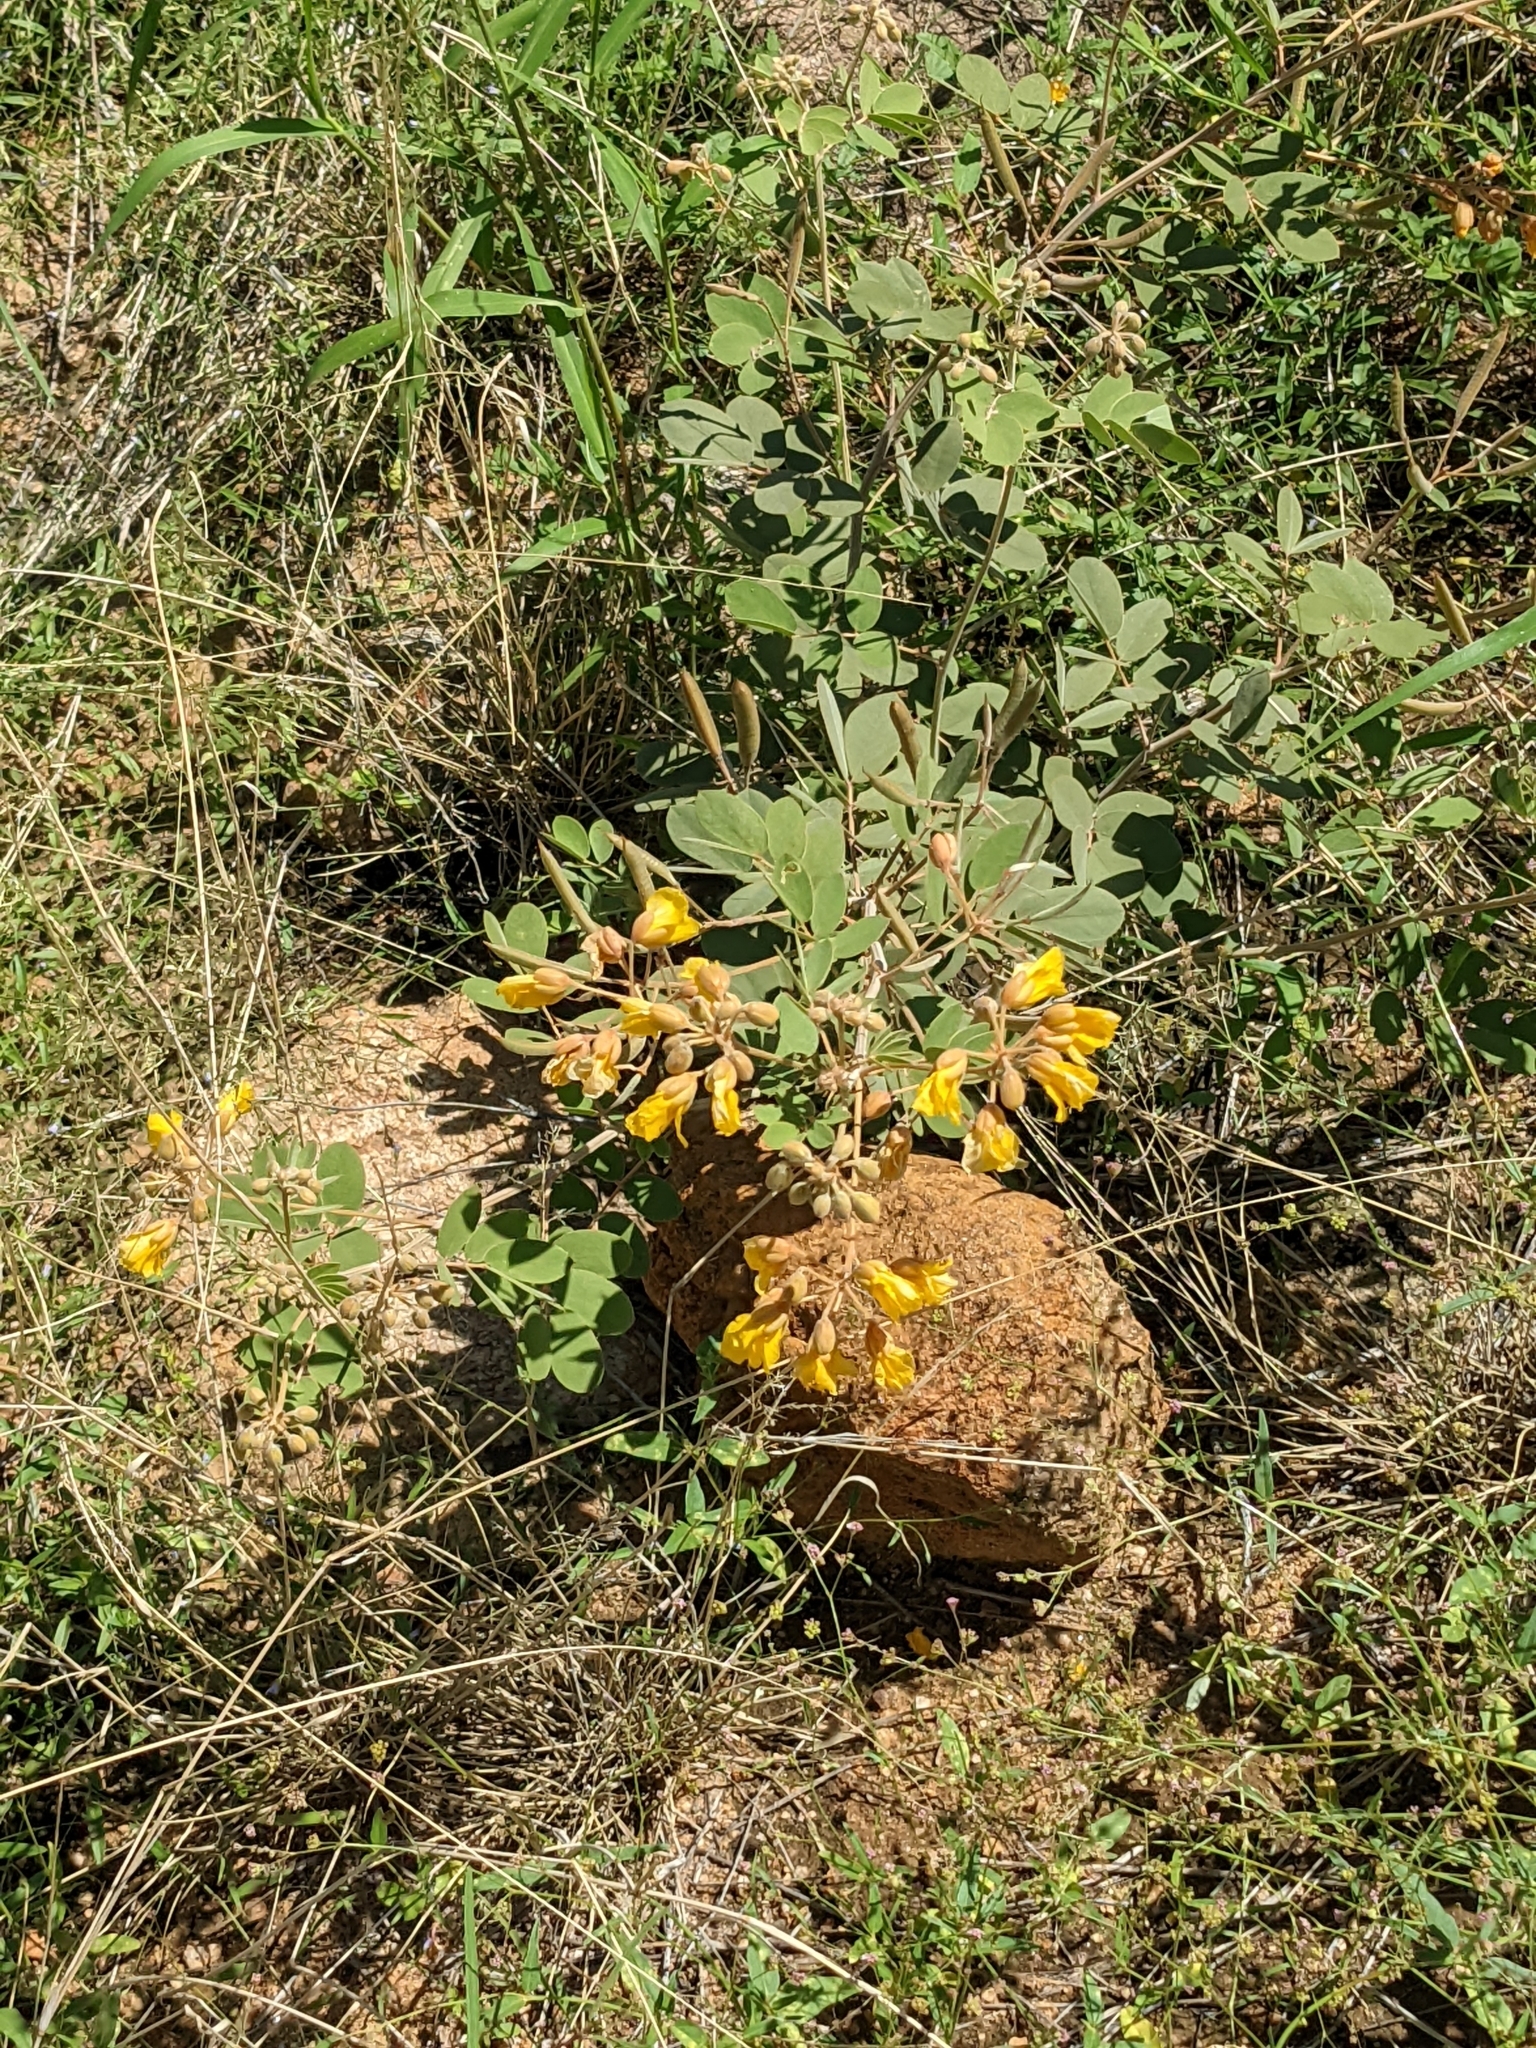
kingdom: Plantae
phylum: Tracheophyta
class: Magnoliopsida
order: Fabales
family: Fabaceae
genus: Senna
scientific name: Senna covesii
